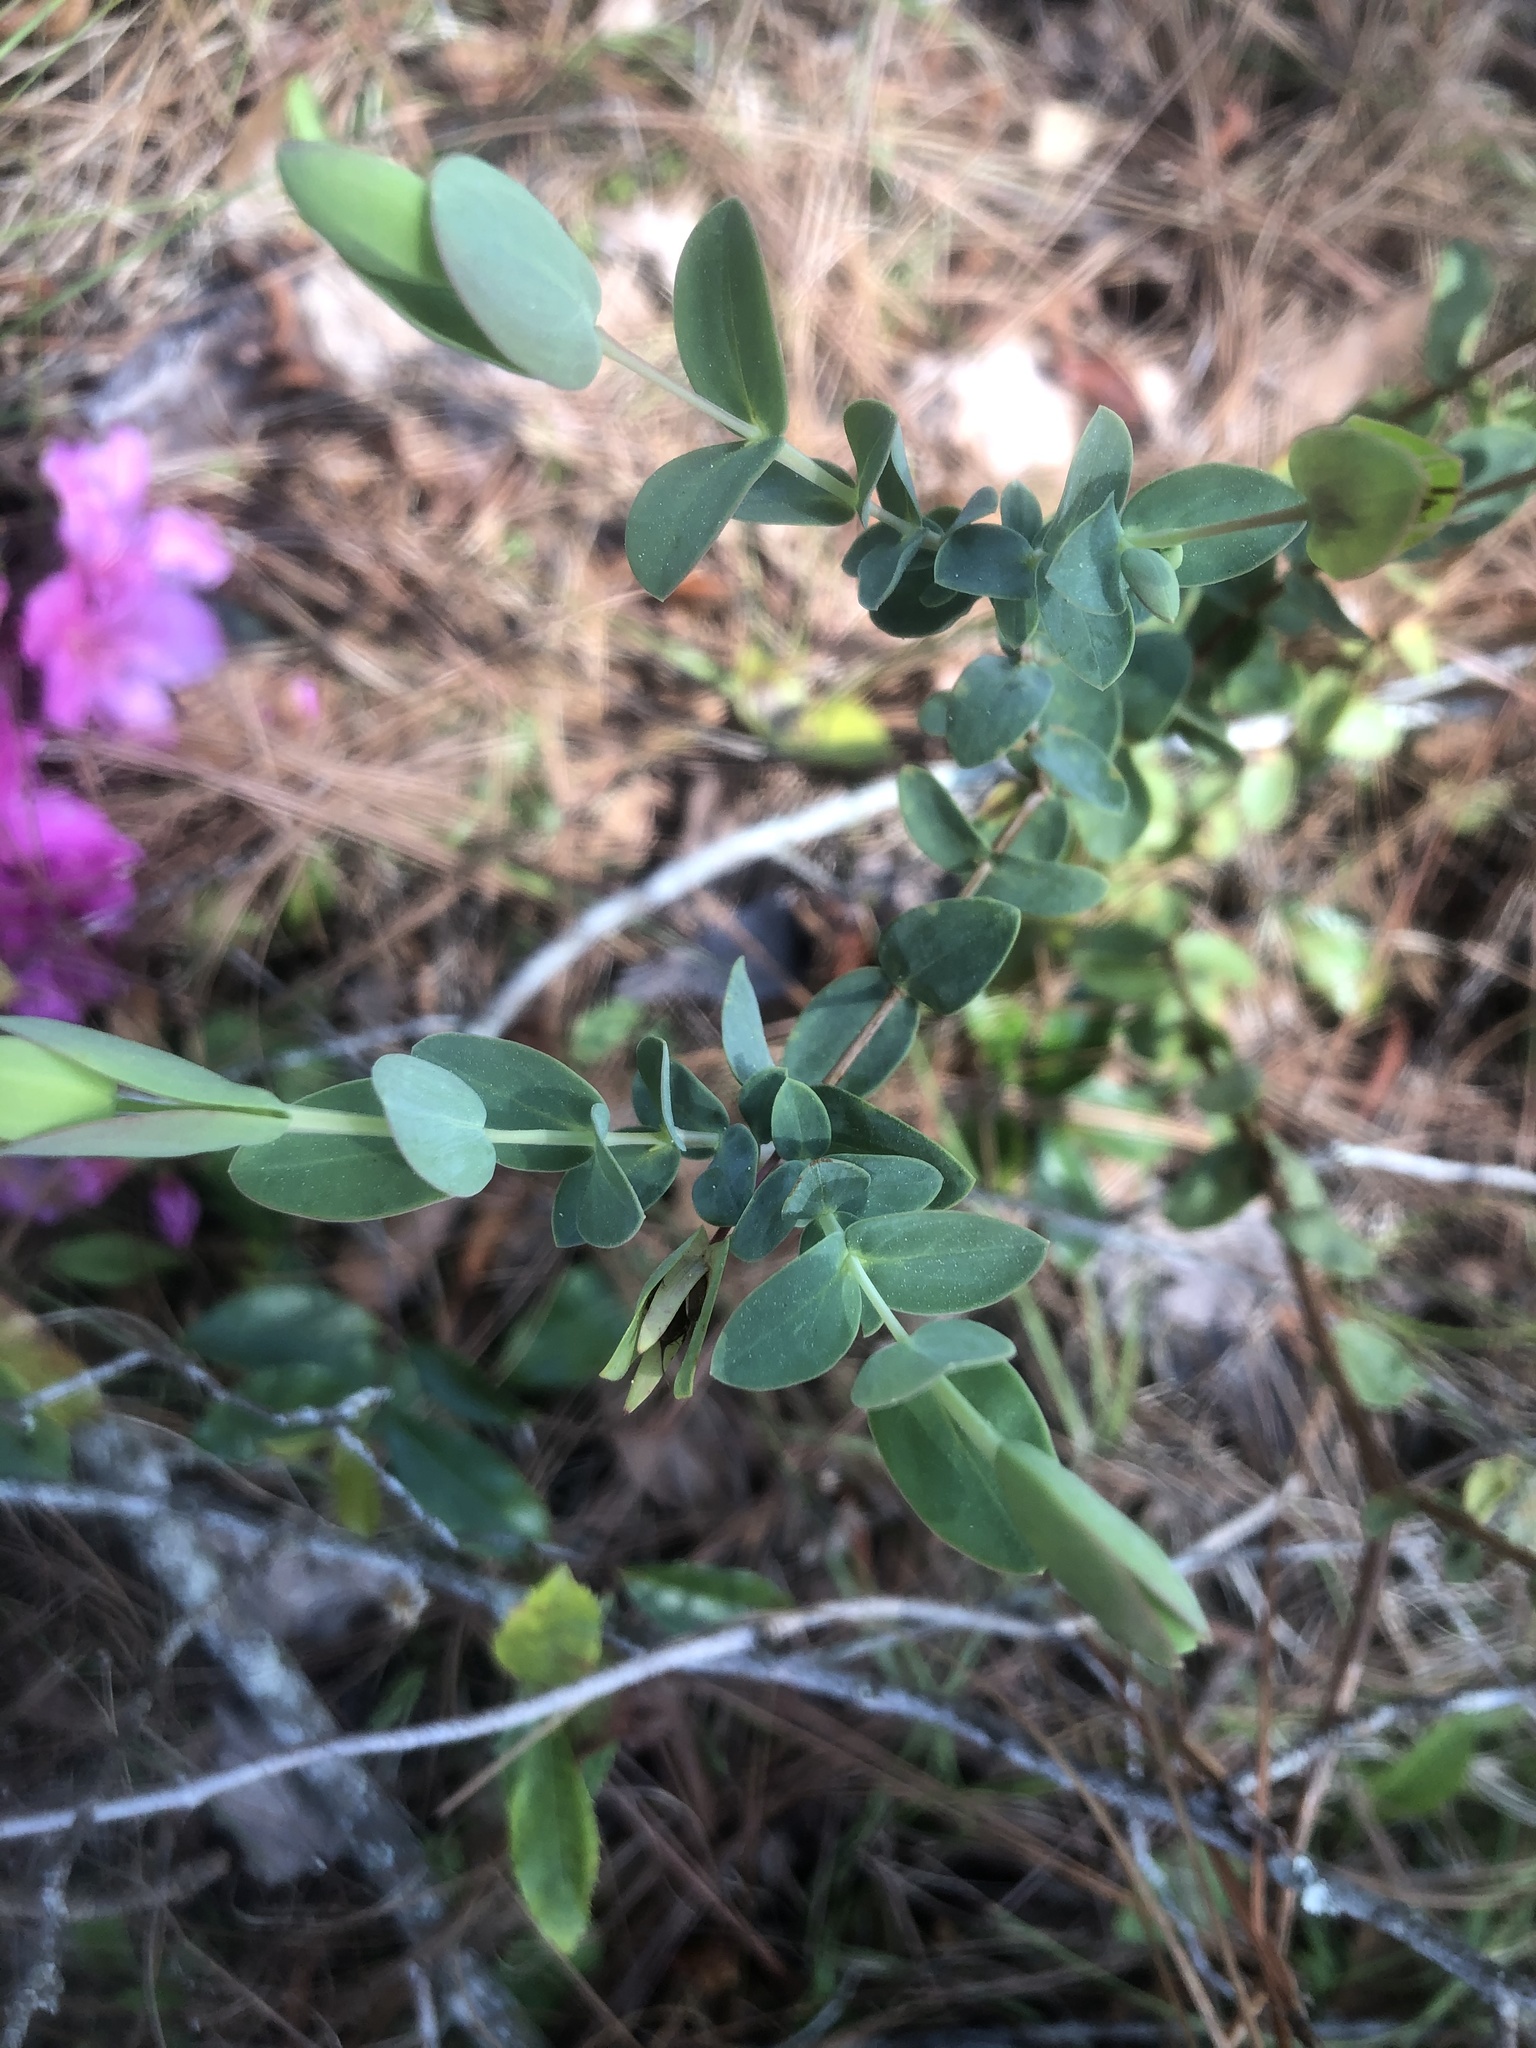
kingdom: Plantae
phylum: Tracheophyta
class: Magnoliopsida
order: Malpighiales
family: Hypericaceae
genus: Hypericum
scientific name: Hypericum tetrapetalum
